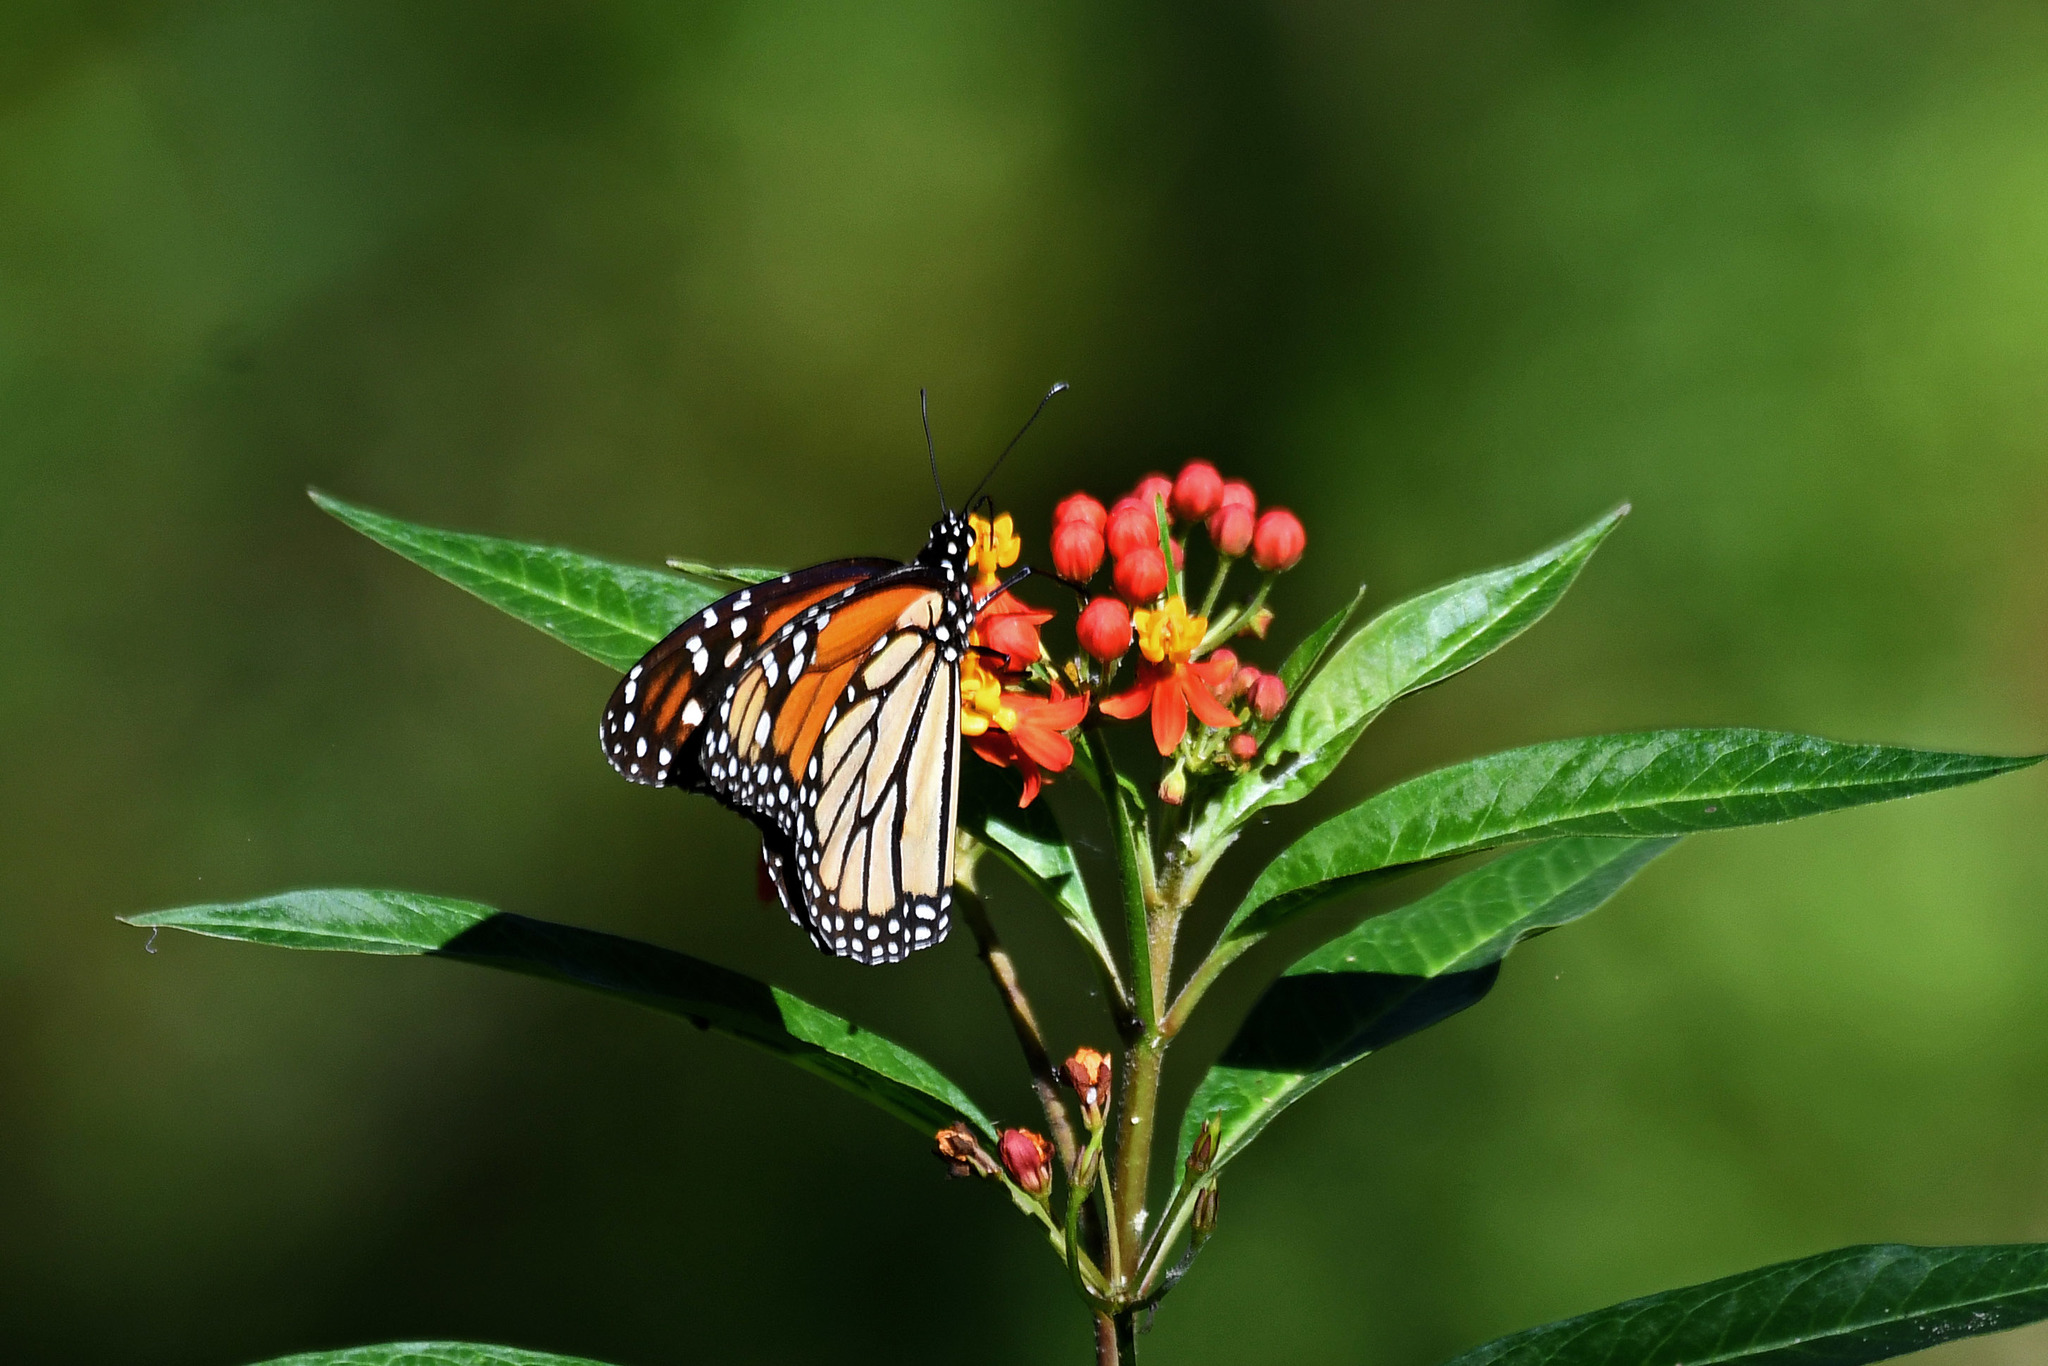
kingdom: Animalia
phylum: Arthropoda
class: Insecta
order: Lepidoptera
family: Nymphalidae
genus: Danaus
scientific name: Danaus plexippus
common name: Monarch
